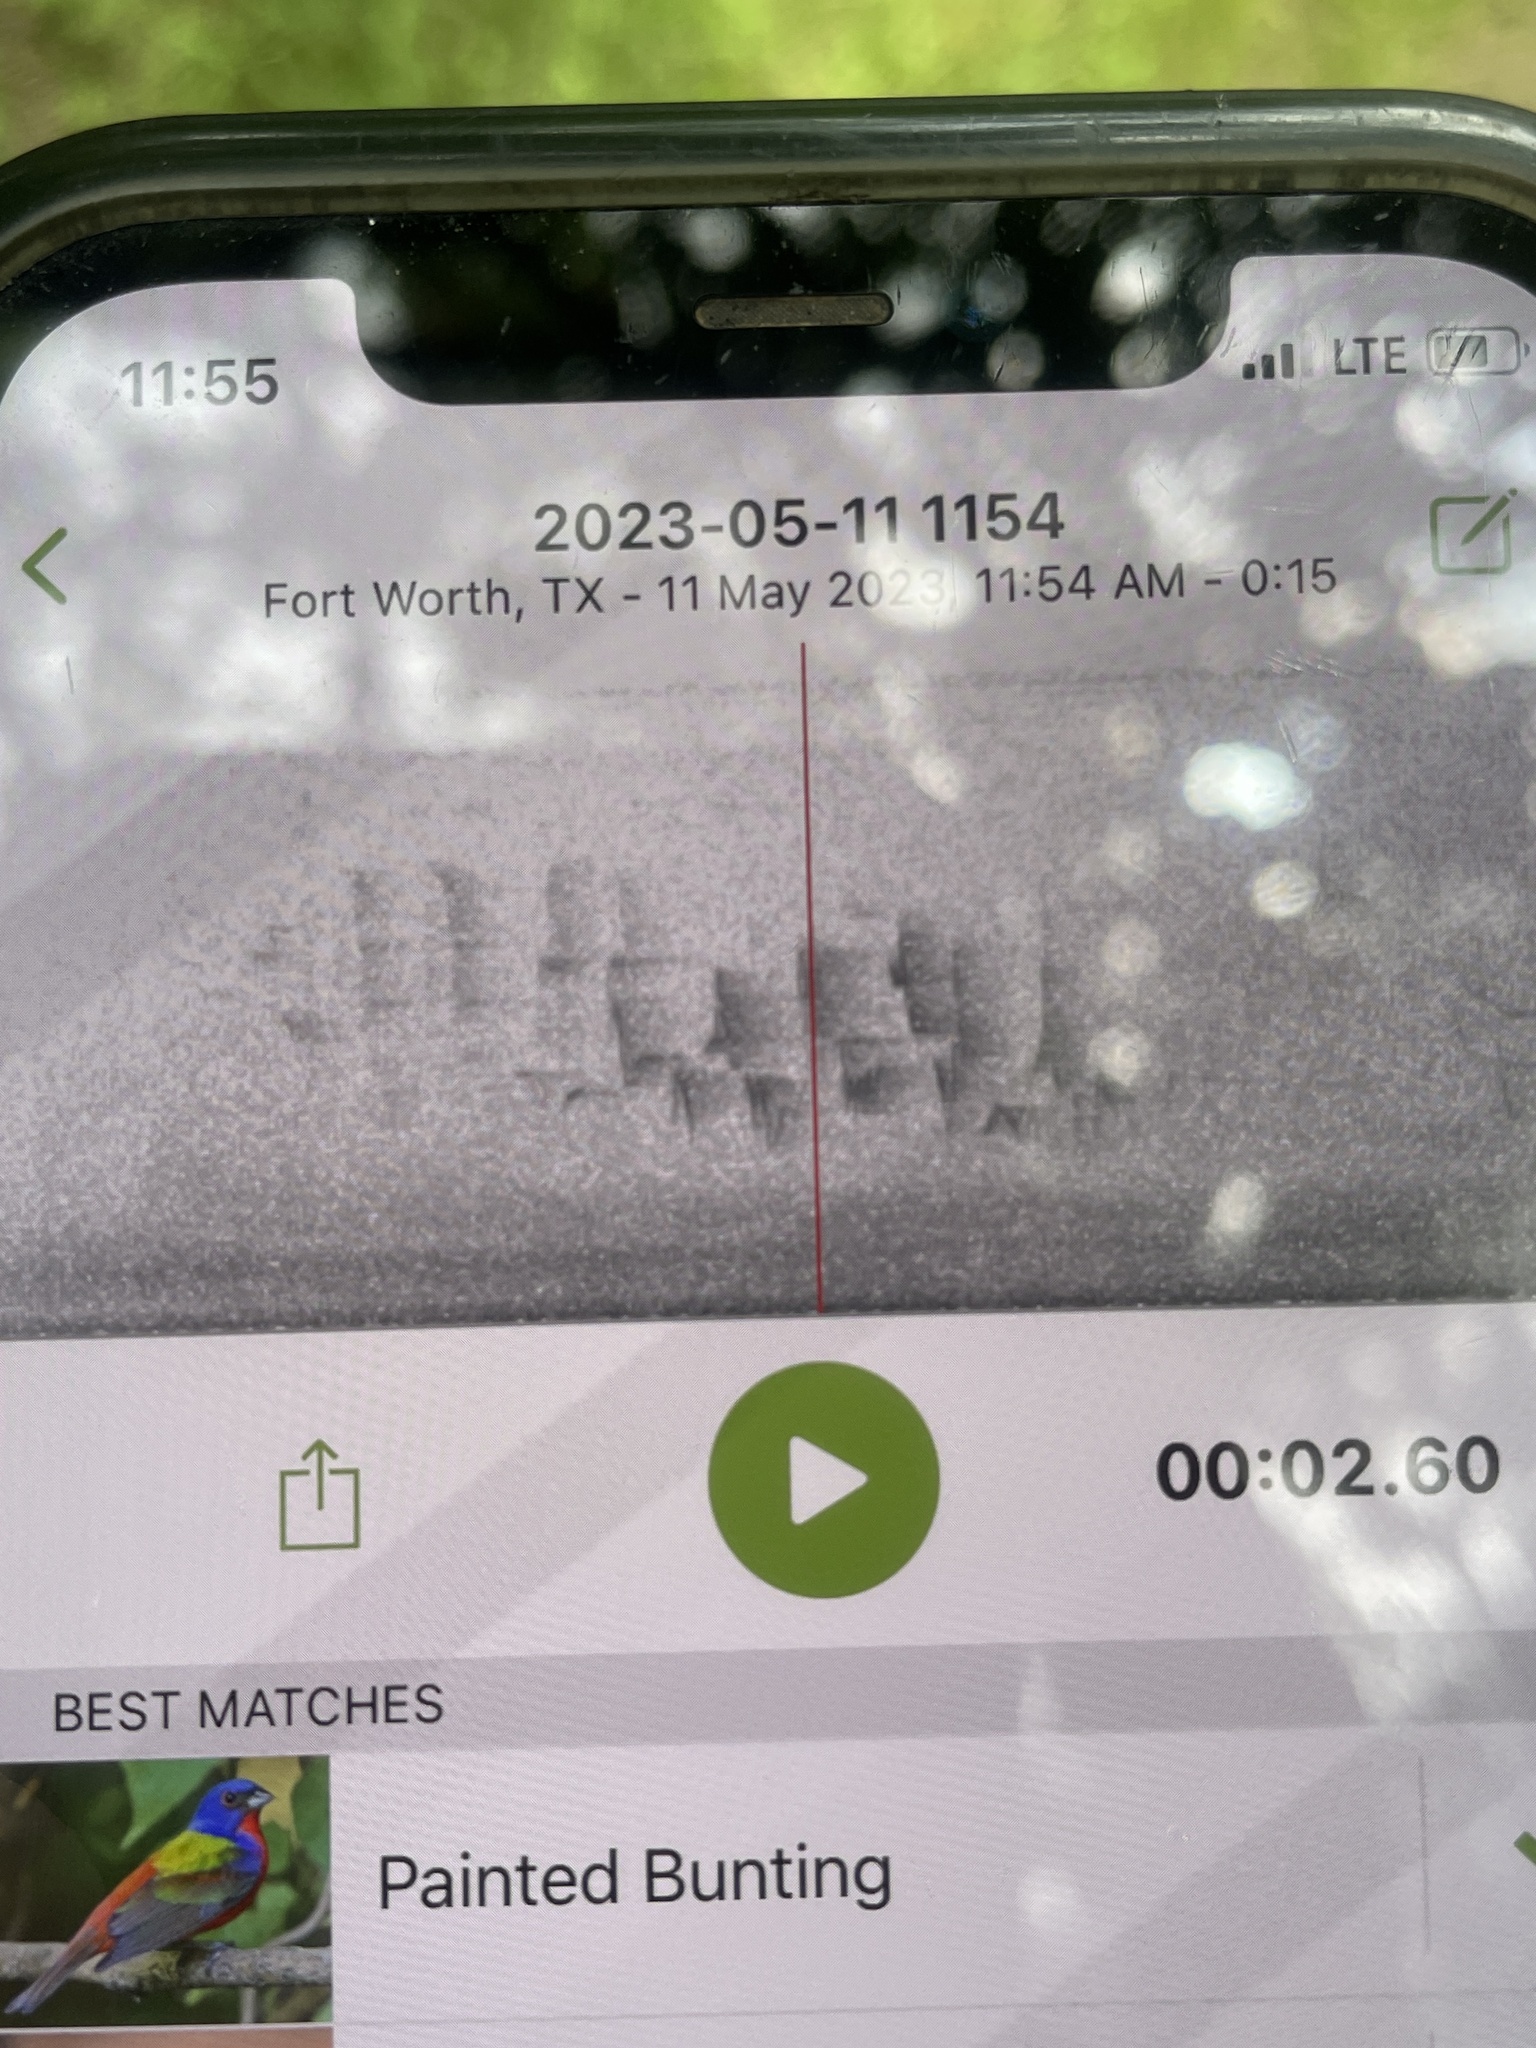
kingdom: Animalia
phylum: Chordata
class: Aves
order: Passeriformes
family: Cardinalidae
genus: Passerina
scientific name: Passerina ciris
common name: Painted bunting
